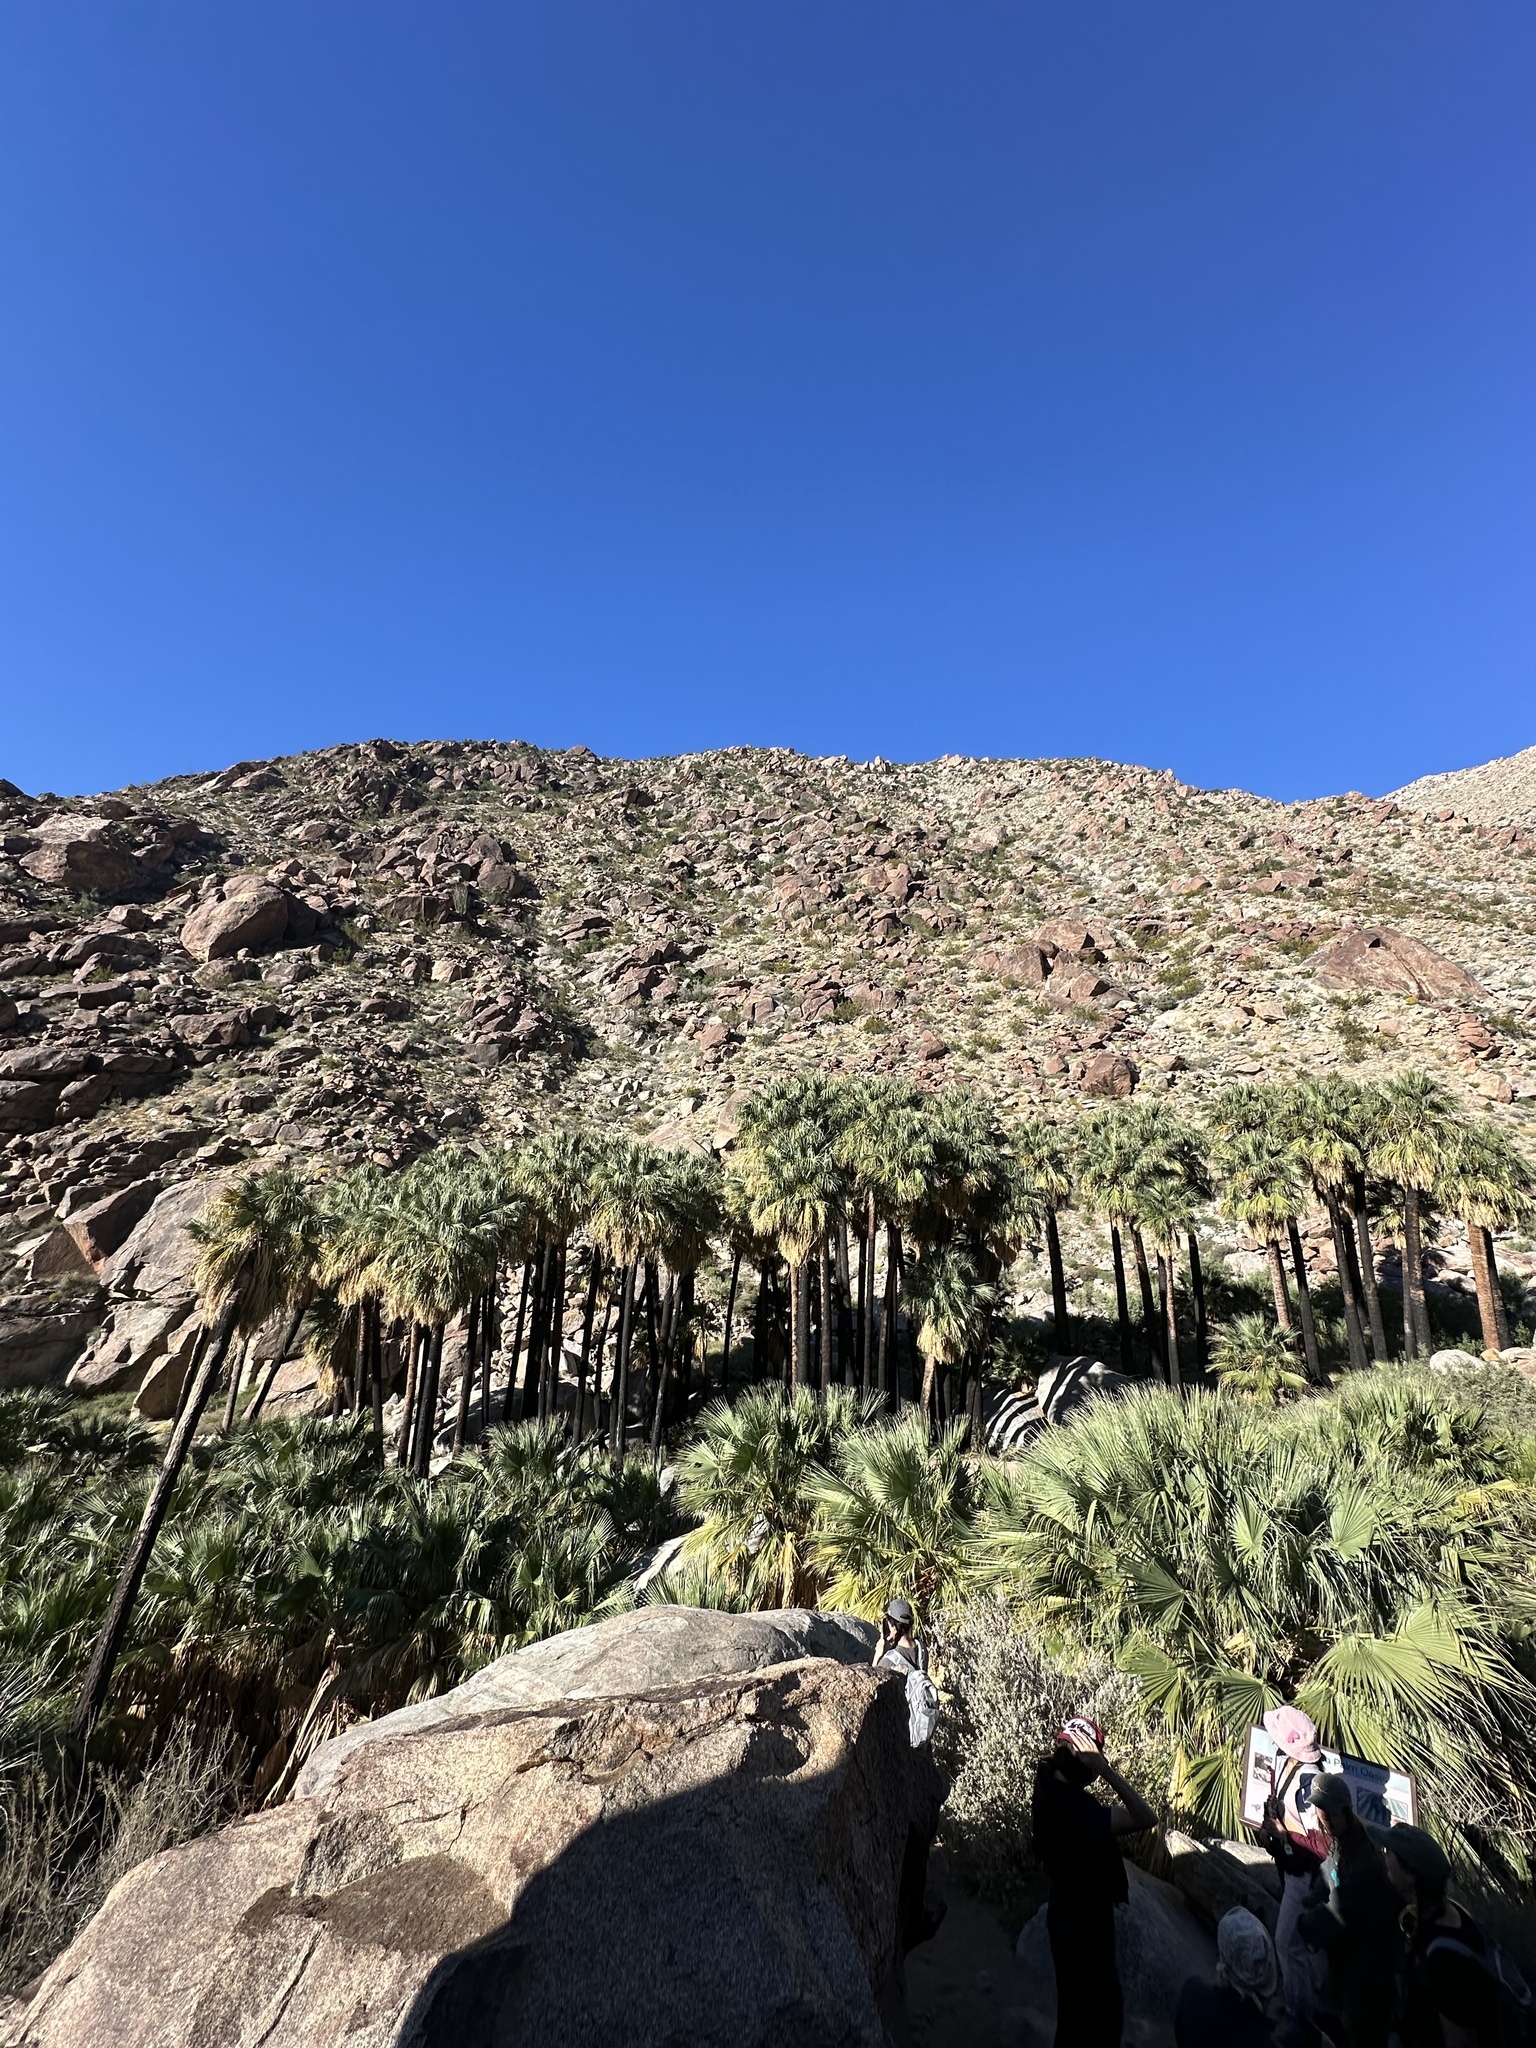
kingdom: Plantae
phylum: Tracheophyta
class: Liliopsida
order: Arecales
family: Arecaceae
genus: Washingtonia
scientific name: Washingtonia filifera
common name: California fan palm
